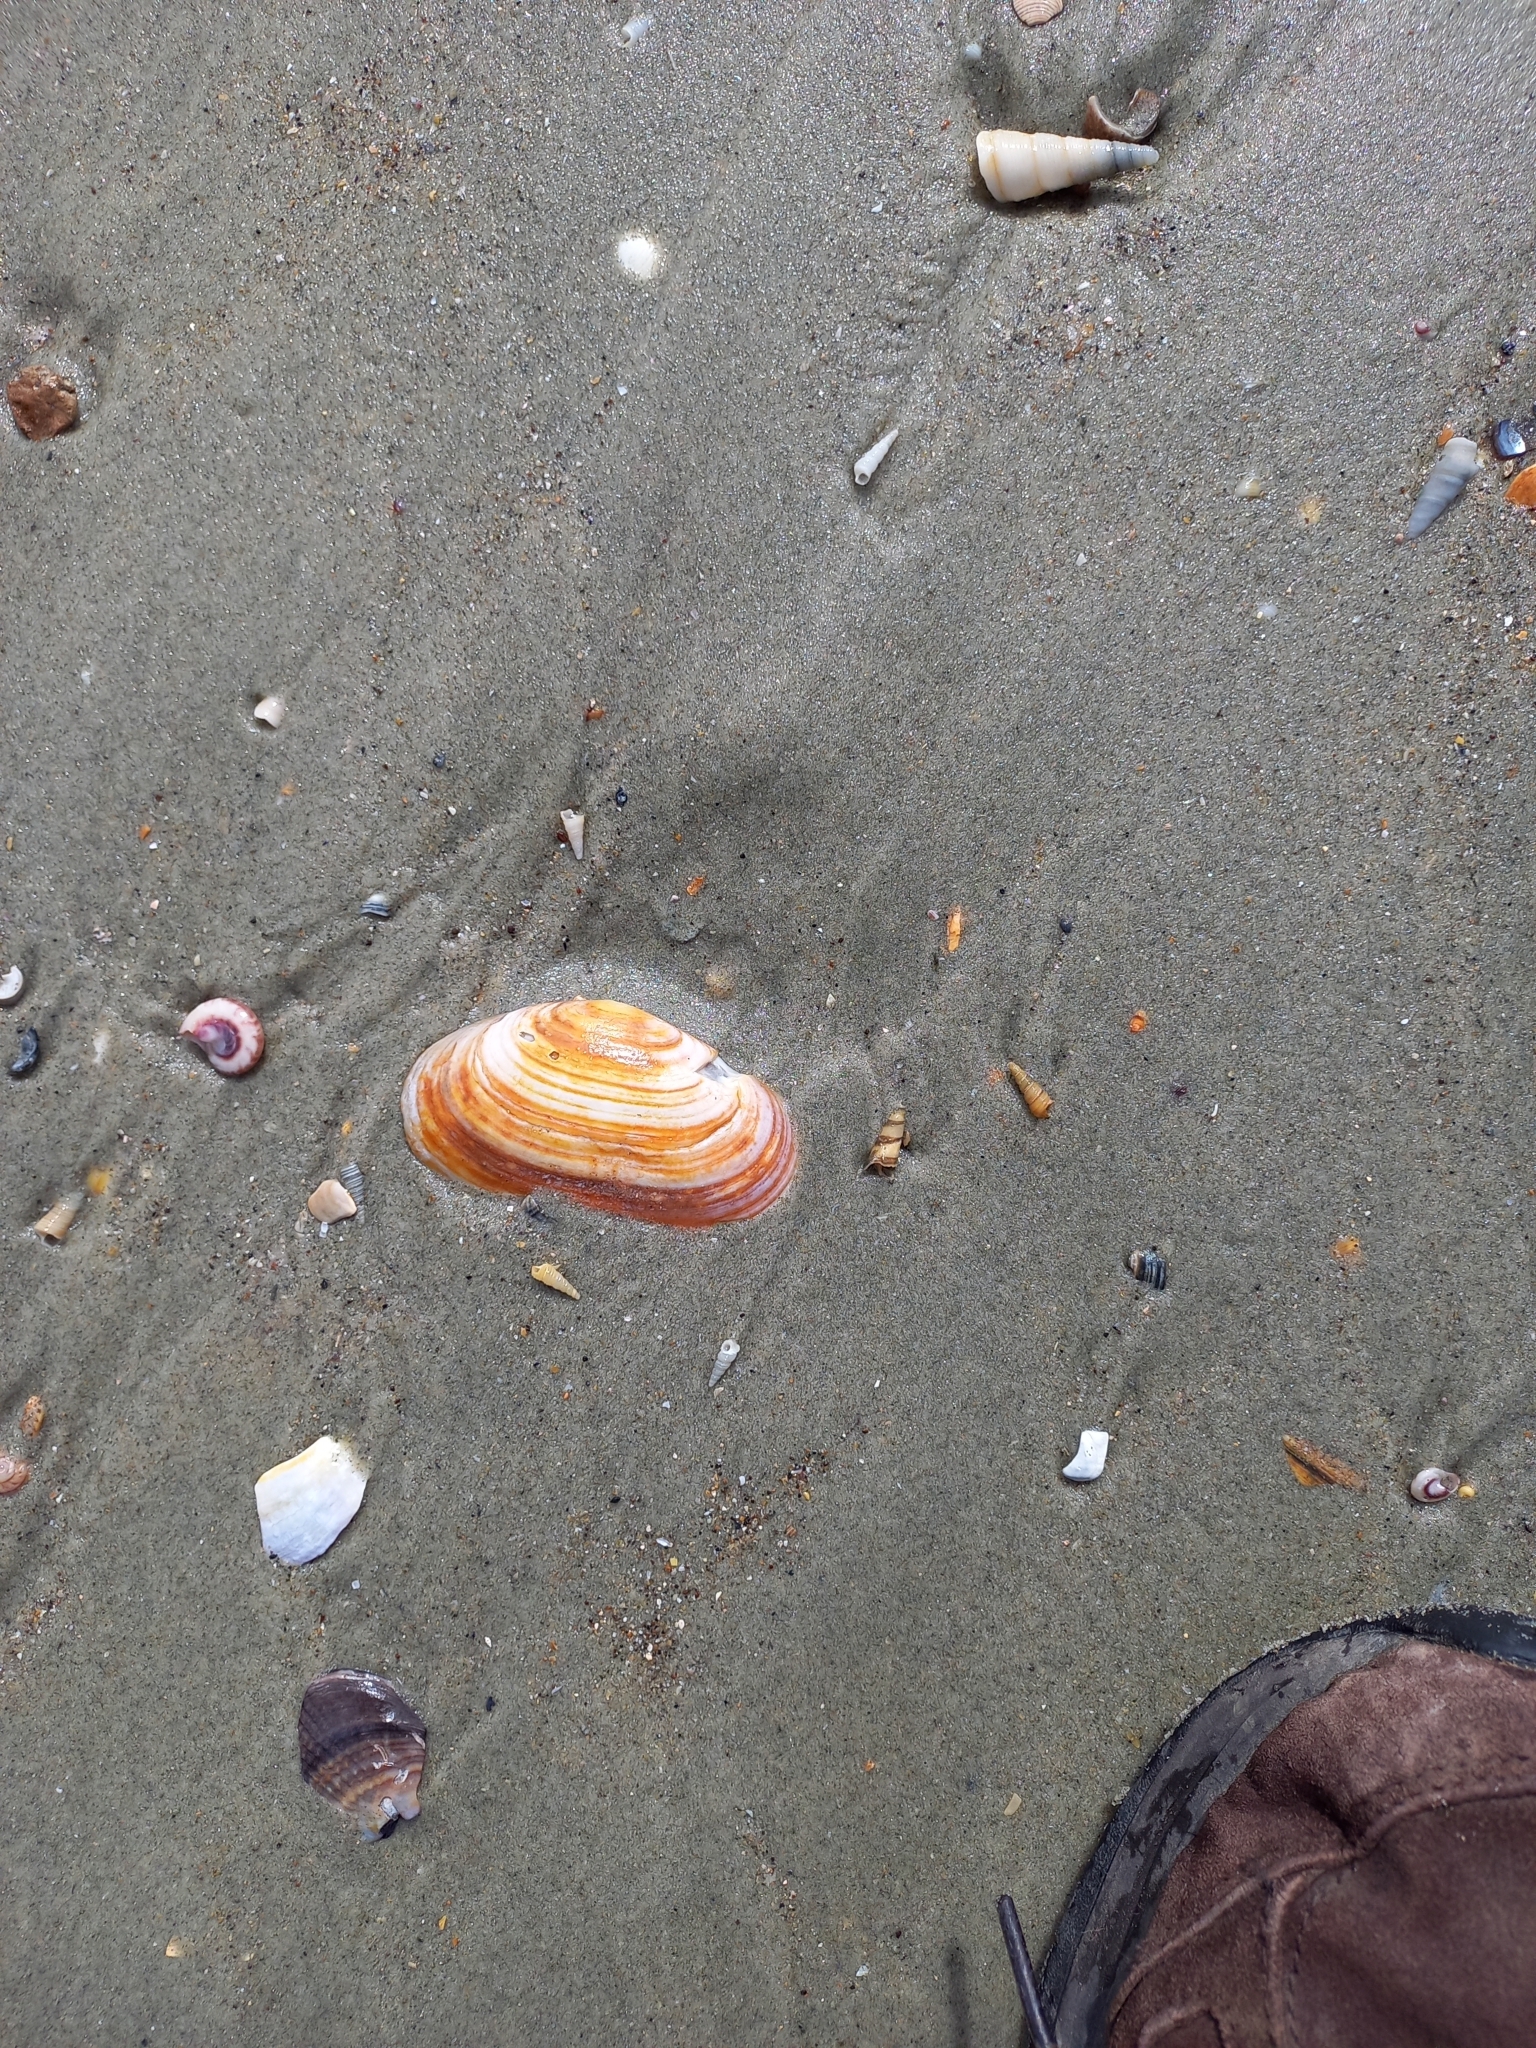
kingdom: Animalia
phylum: Mollusca
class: Bivalvia
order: Venerida
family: Mesodesmatidae
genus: Paphies
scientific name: Paphies australis
